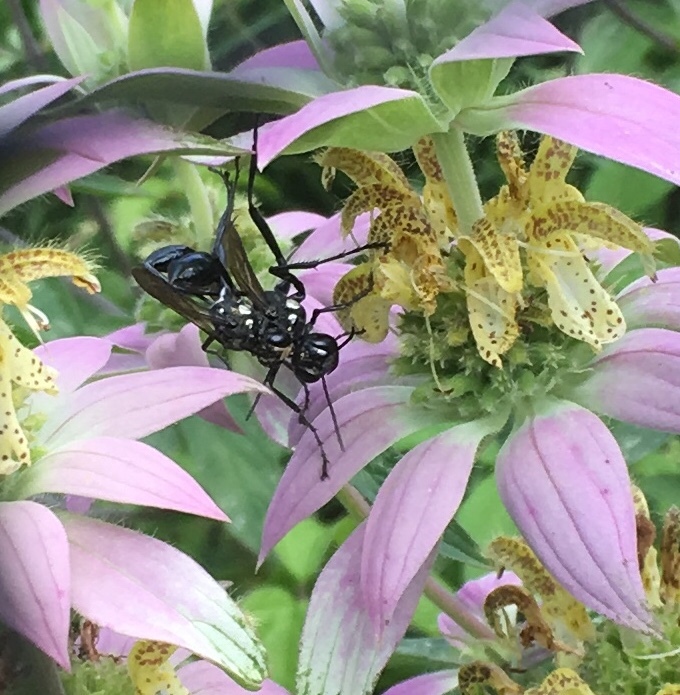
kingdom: Animalia
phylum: Arthropoda
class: Insecta
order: Hymenoptera
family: Sphecidae
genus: Eremnophila
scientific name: Eremnophila aureonotata
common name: Gold-marked thread-waisted wasp
